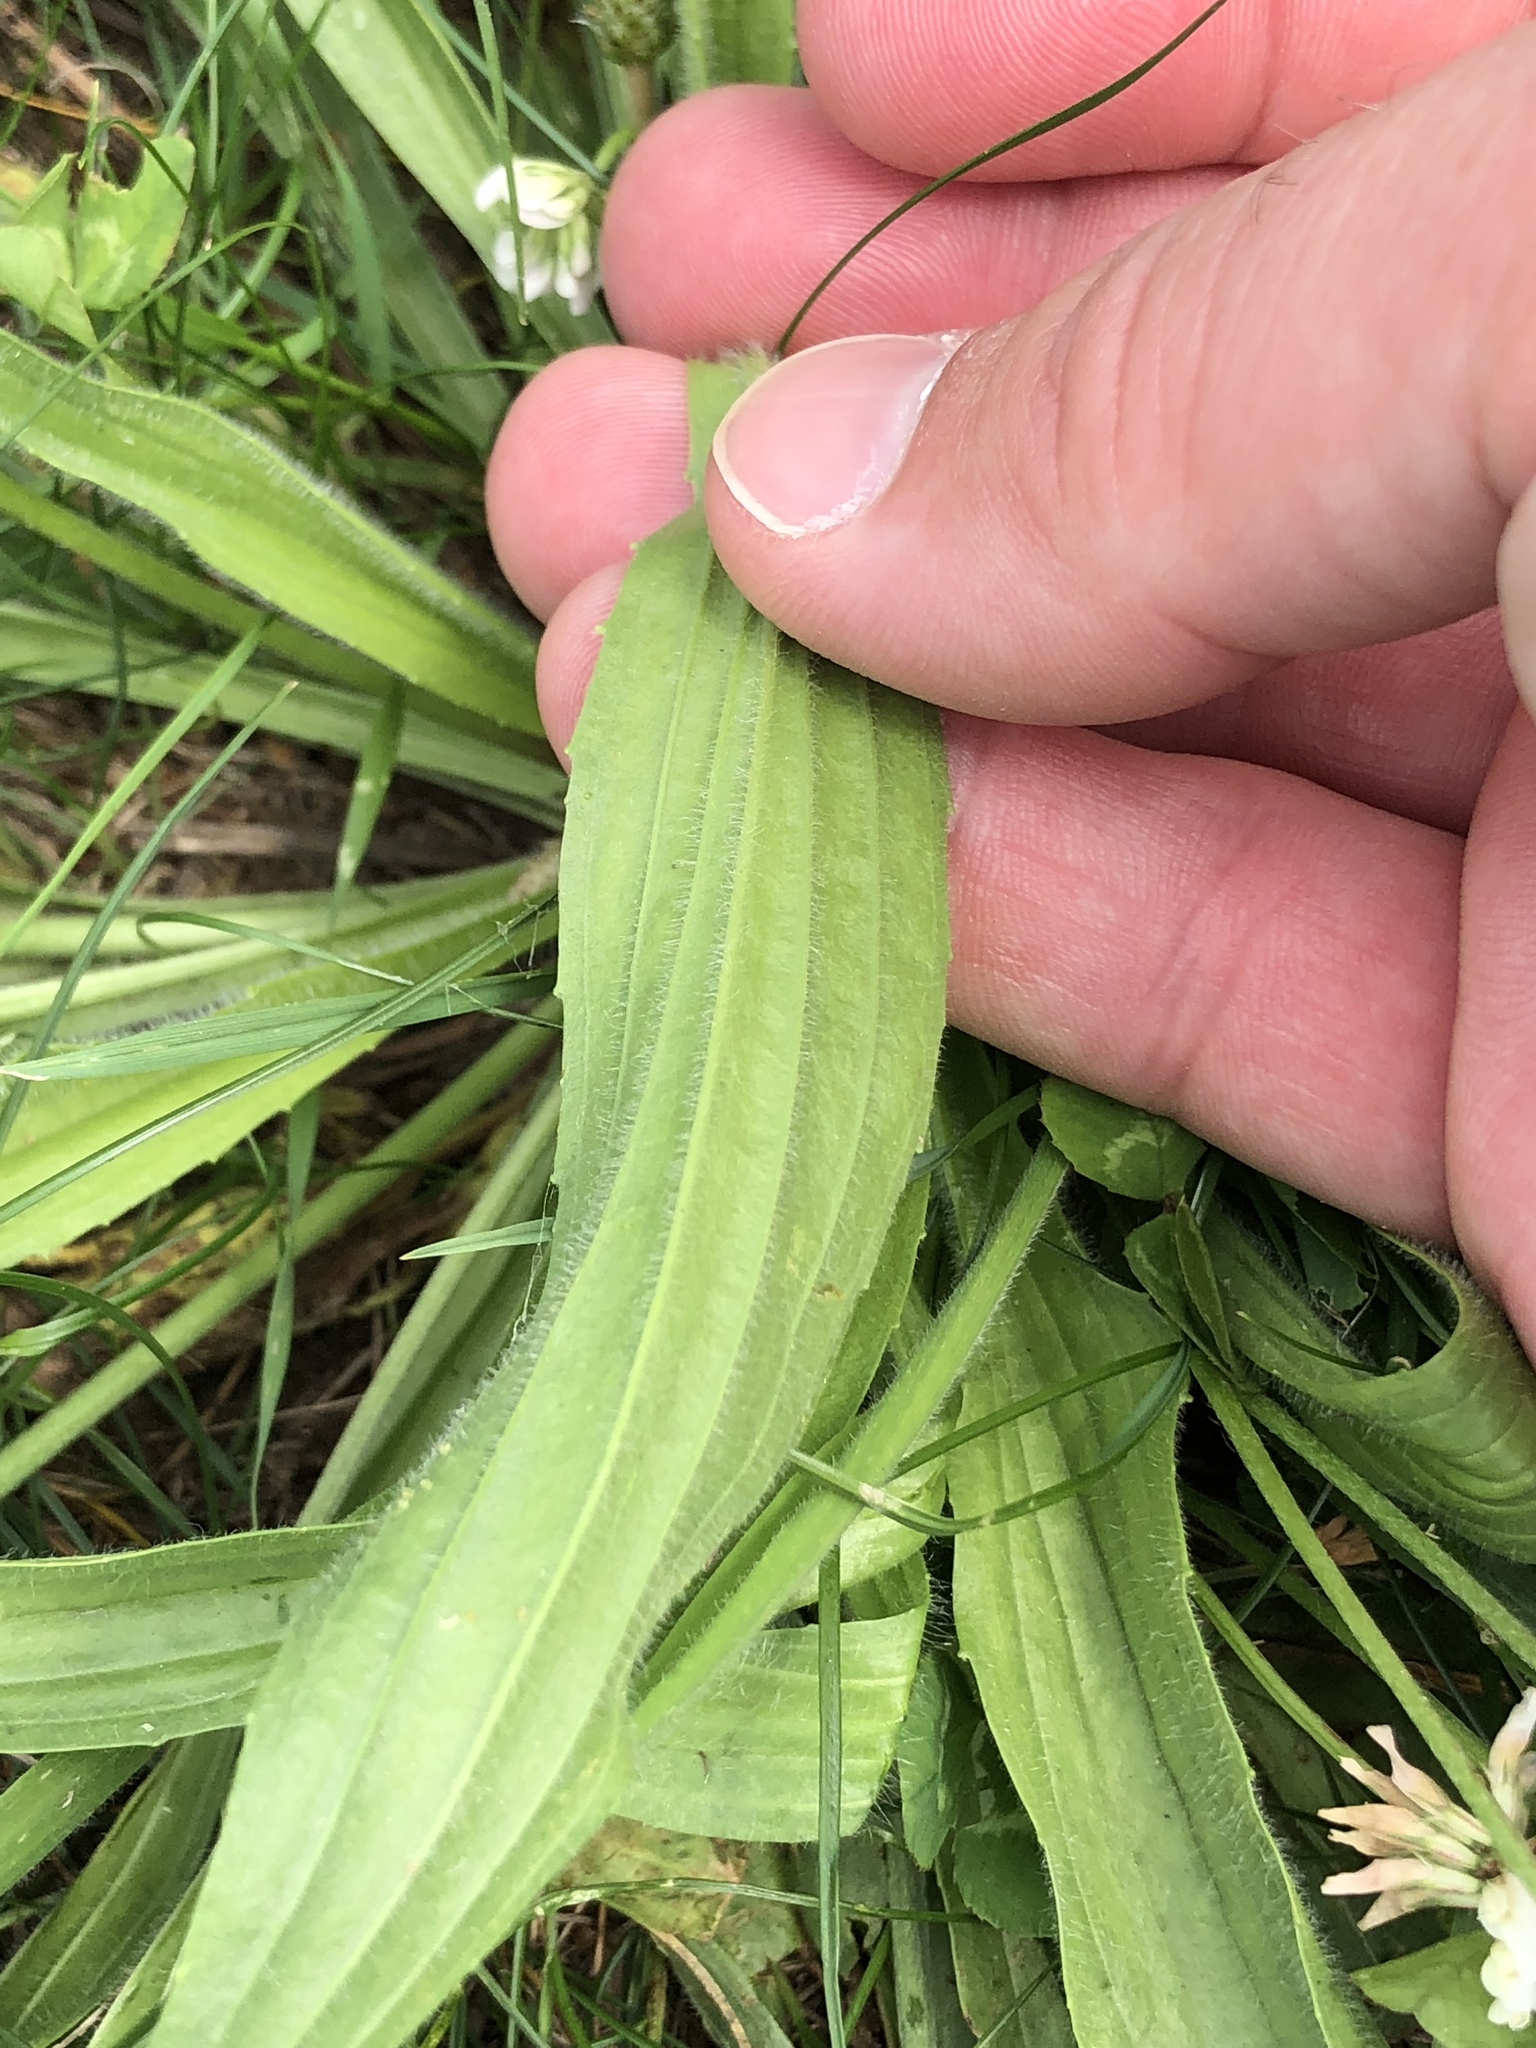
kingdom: Plantae
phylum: Tracheophyta
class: Magnoliopsida
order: Lamiales
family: Plantaginaceae
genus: Plantago
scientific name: Plantago lanceolata
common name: Ribwort plantain
